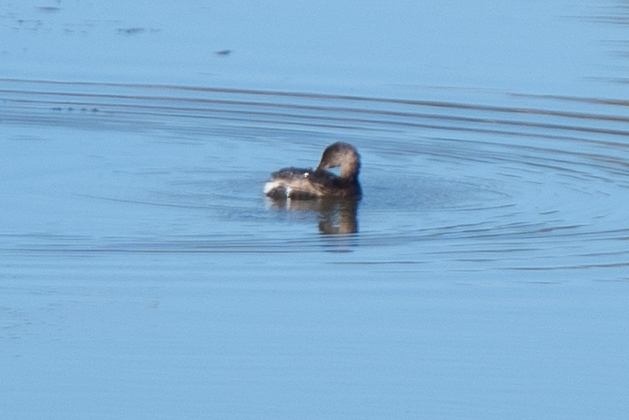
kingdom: Animalia
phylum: Chordata
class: Aves
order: Podicipediformes
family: Podicipedidae
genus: Podilymbus
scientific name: Podilymbus podiceps
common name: Pied-billed grebe
